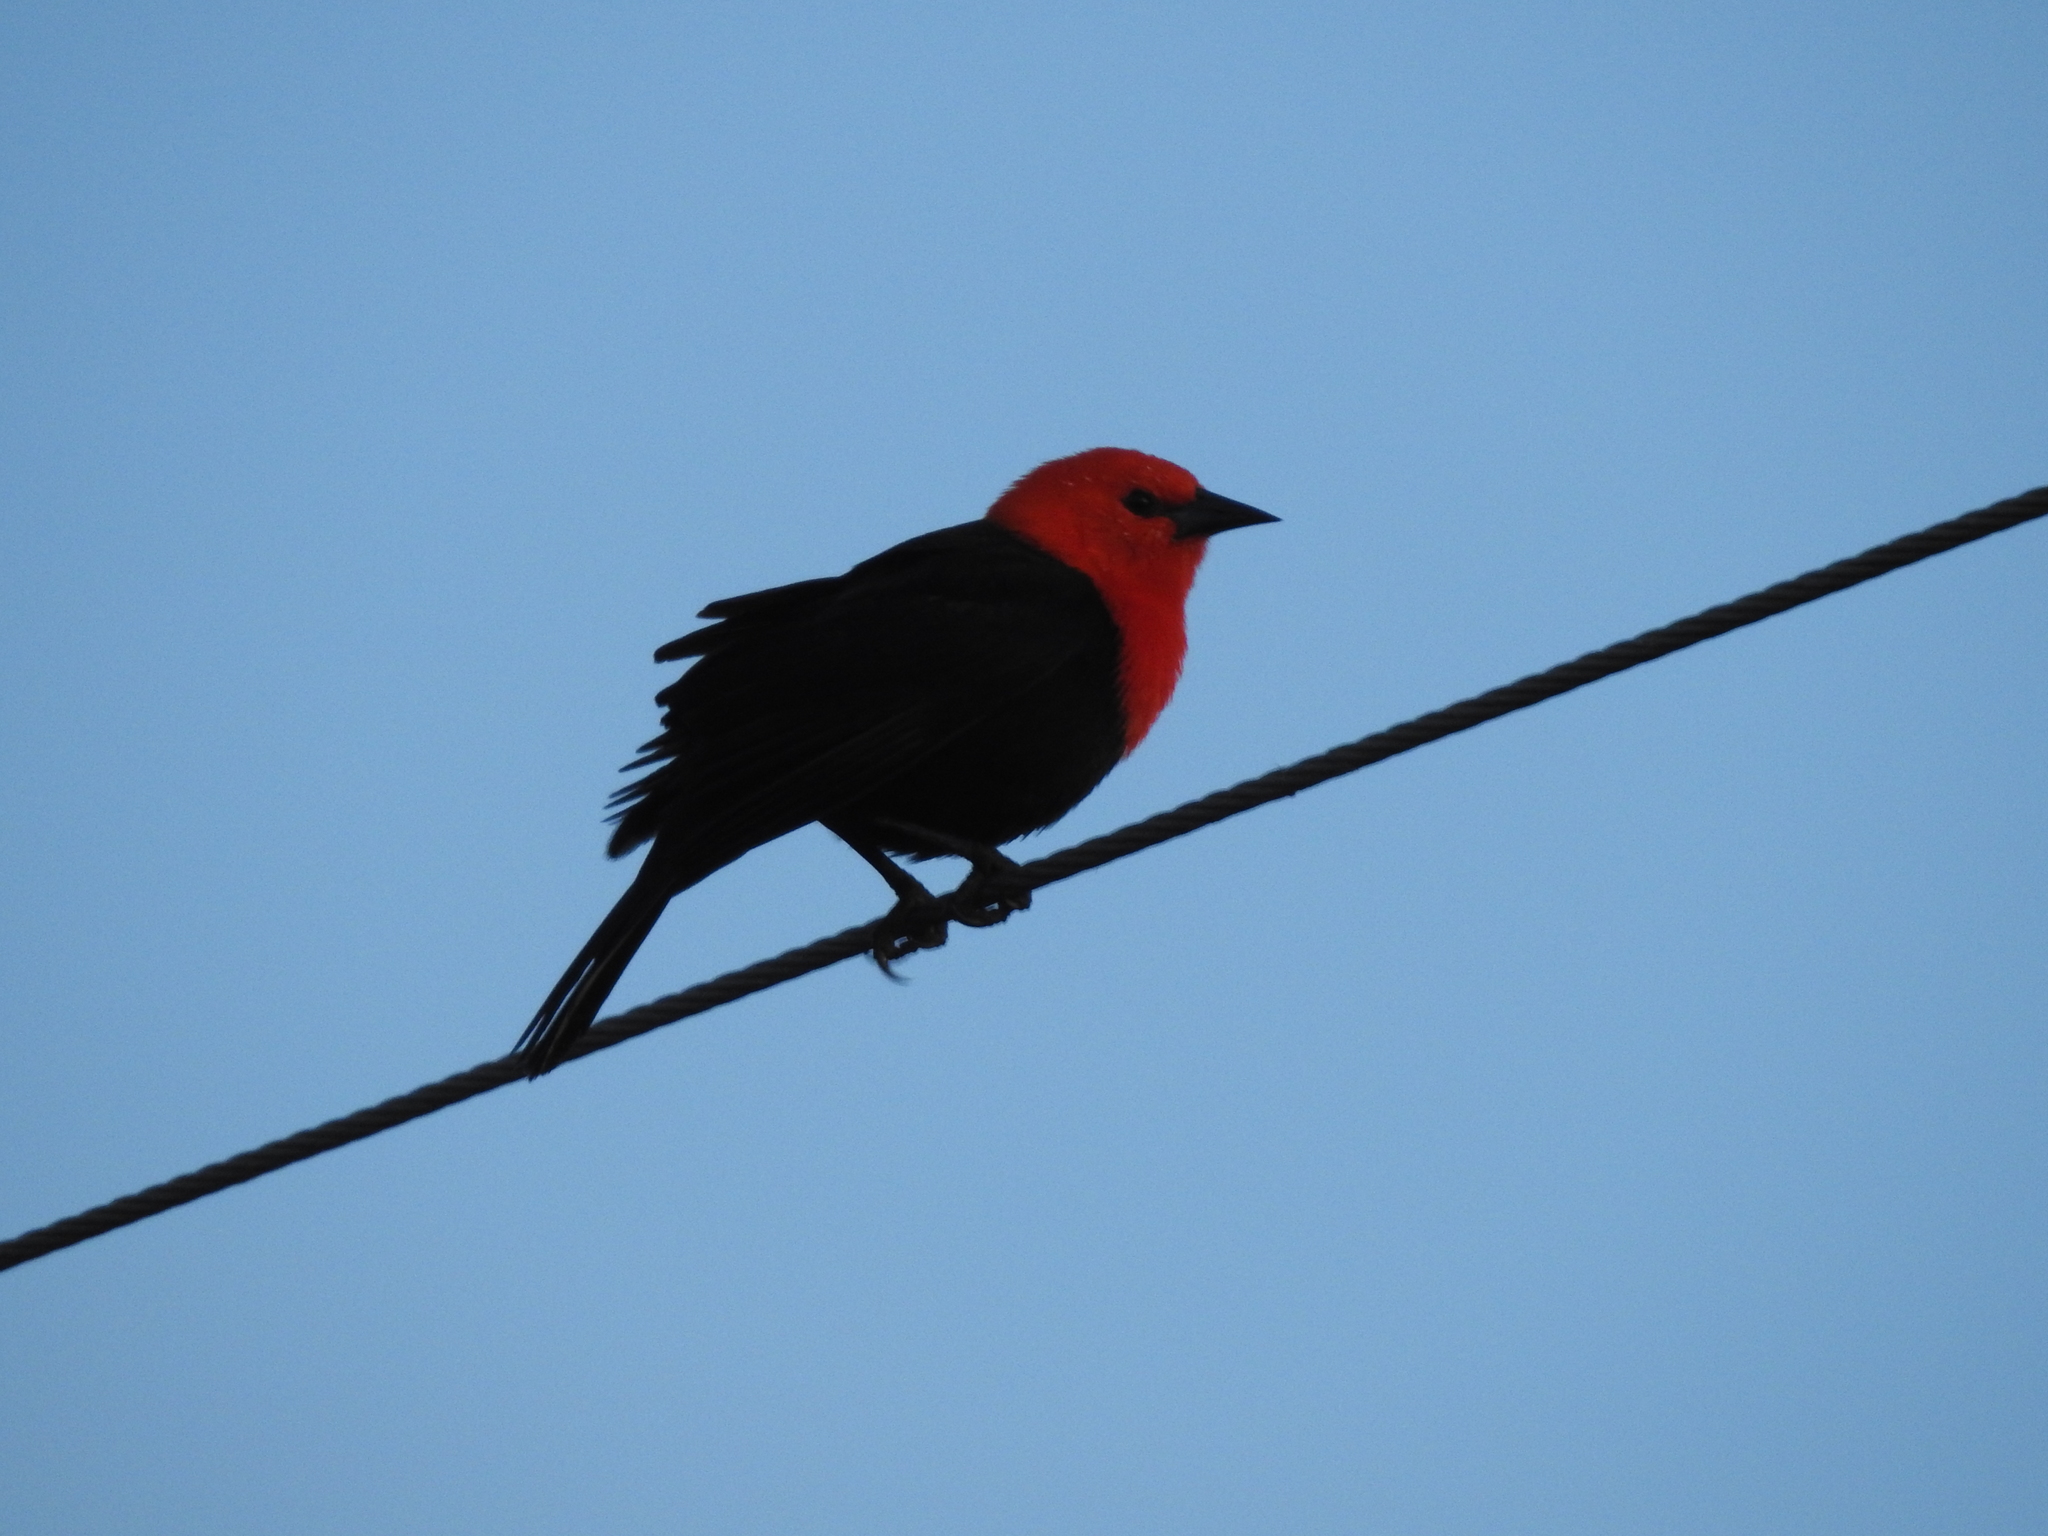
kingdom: Animalia
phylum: Chordata
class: Aves
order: Passeriformes
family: Icteridae
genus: Amblyramphus
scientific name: Amblyramphus holosericeus
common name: Scarlet-headed blackbird
